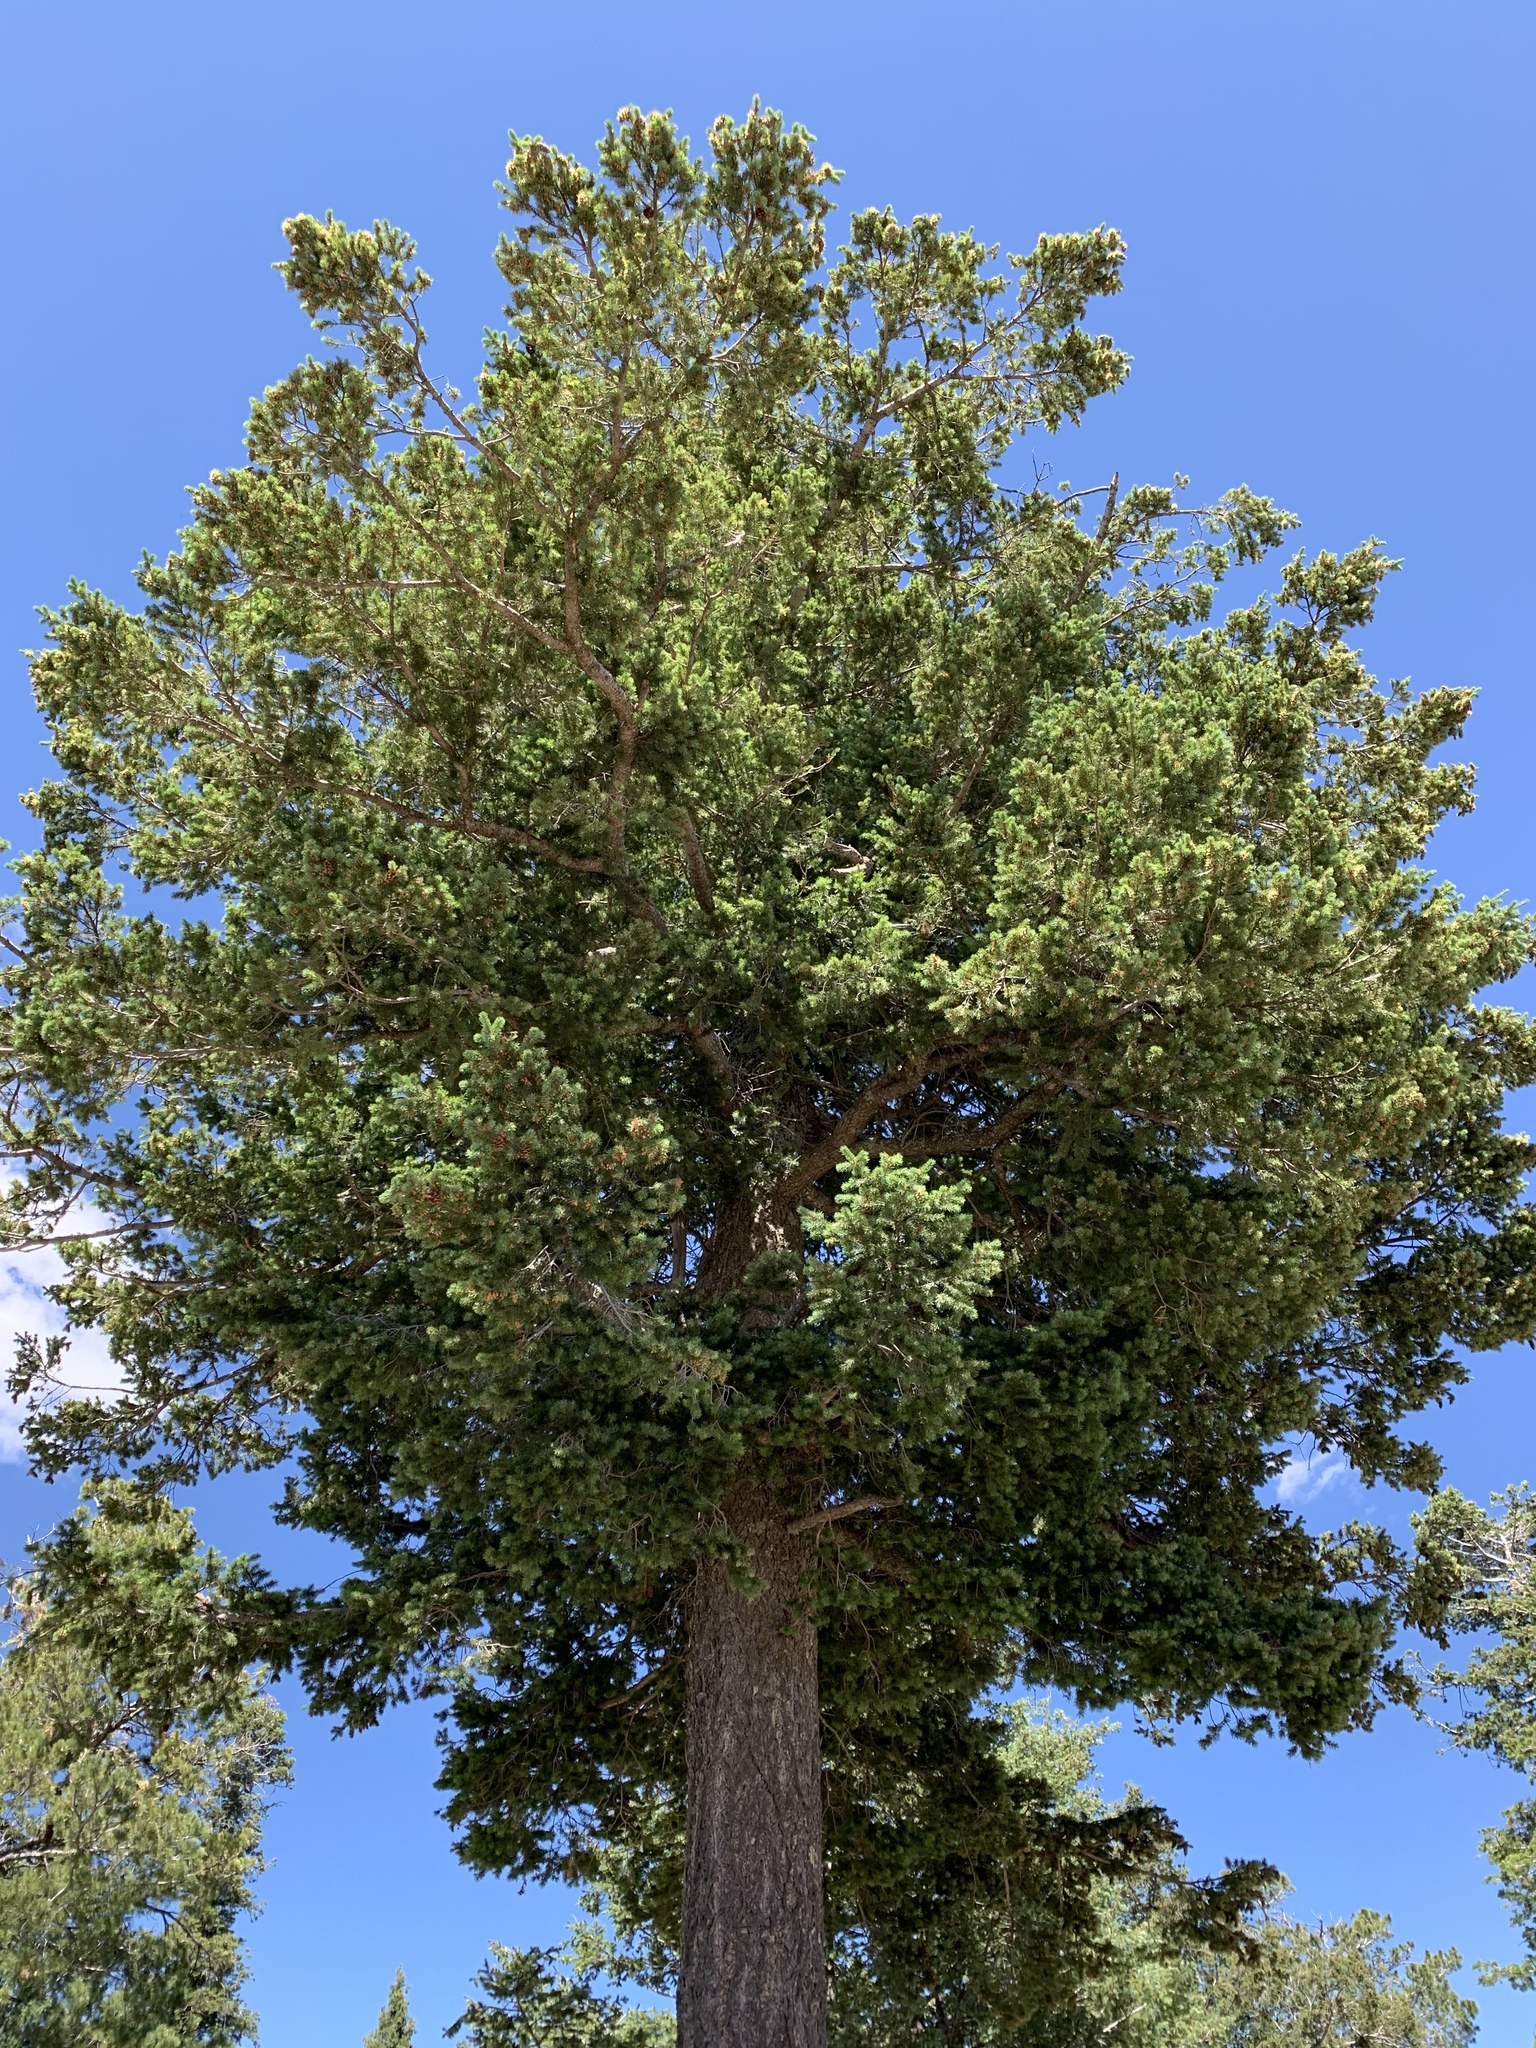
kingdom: Plantae
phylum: Tracheophyta
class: Pinopsida
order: Pinales
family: Pinaceae
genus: Pseudotsuga
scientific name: Pseudotsuga menziesii
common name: Douglas fir
